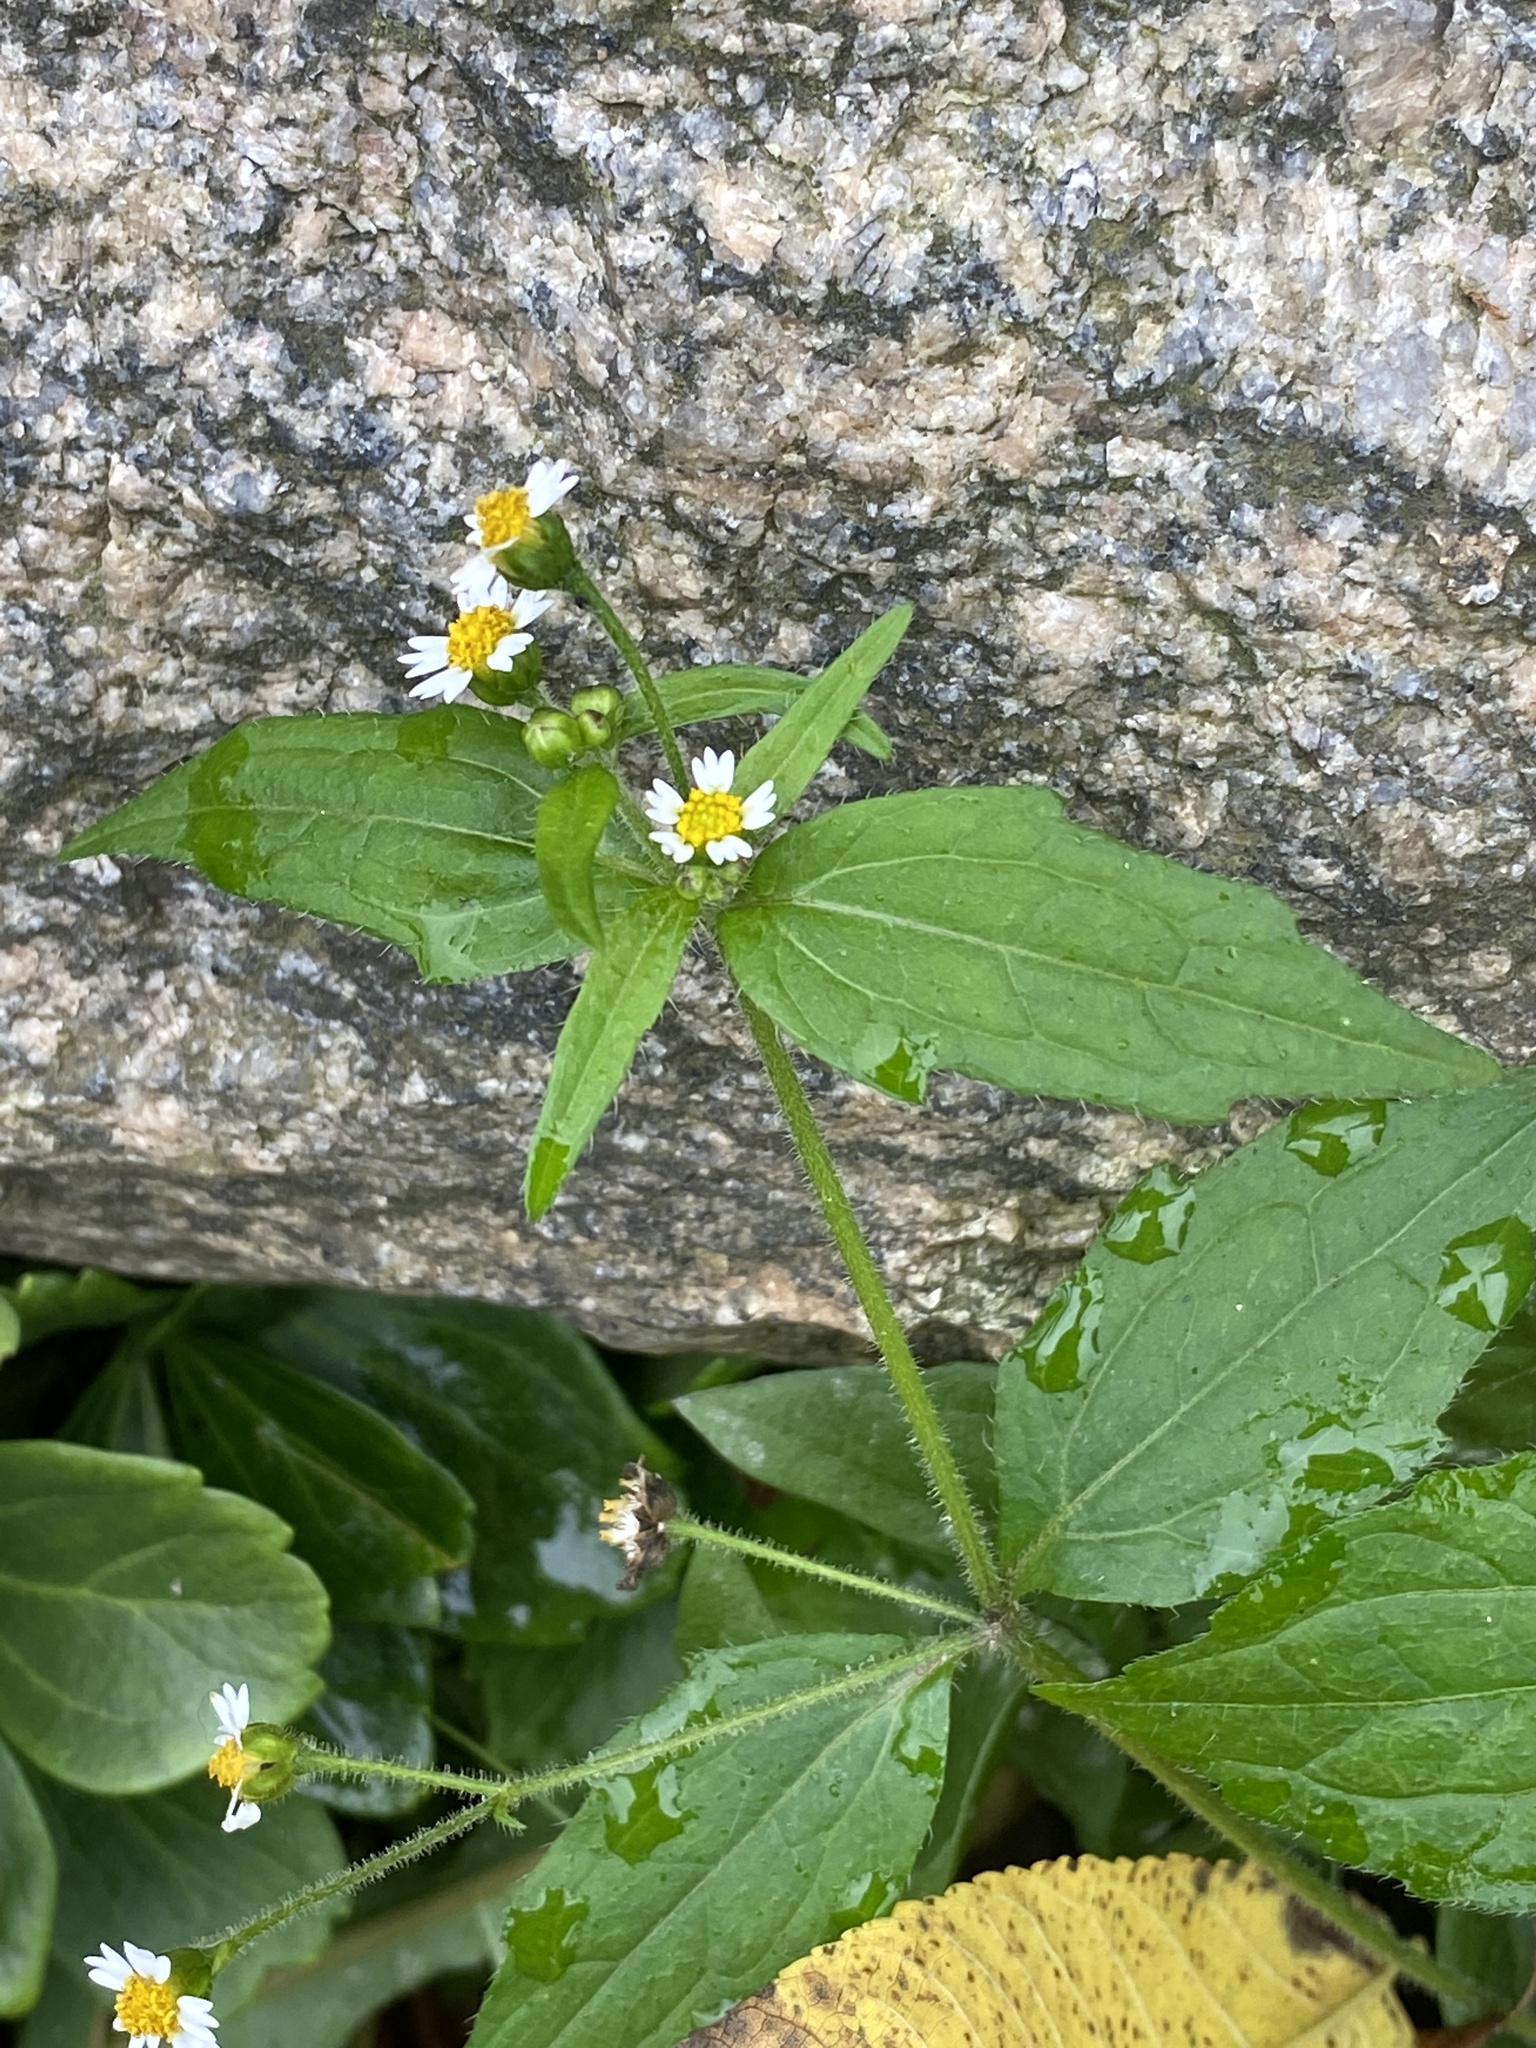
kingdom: Plantae
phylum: Tracheophyta
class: Magnoliopsida
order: Asterales
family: Asteraceae
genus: Galinsoga
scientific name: Galinsoga quadriradiata
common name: Shaggy soldier
